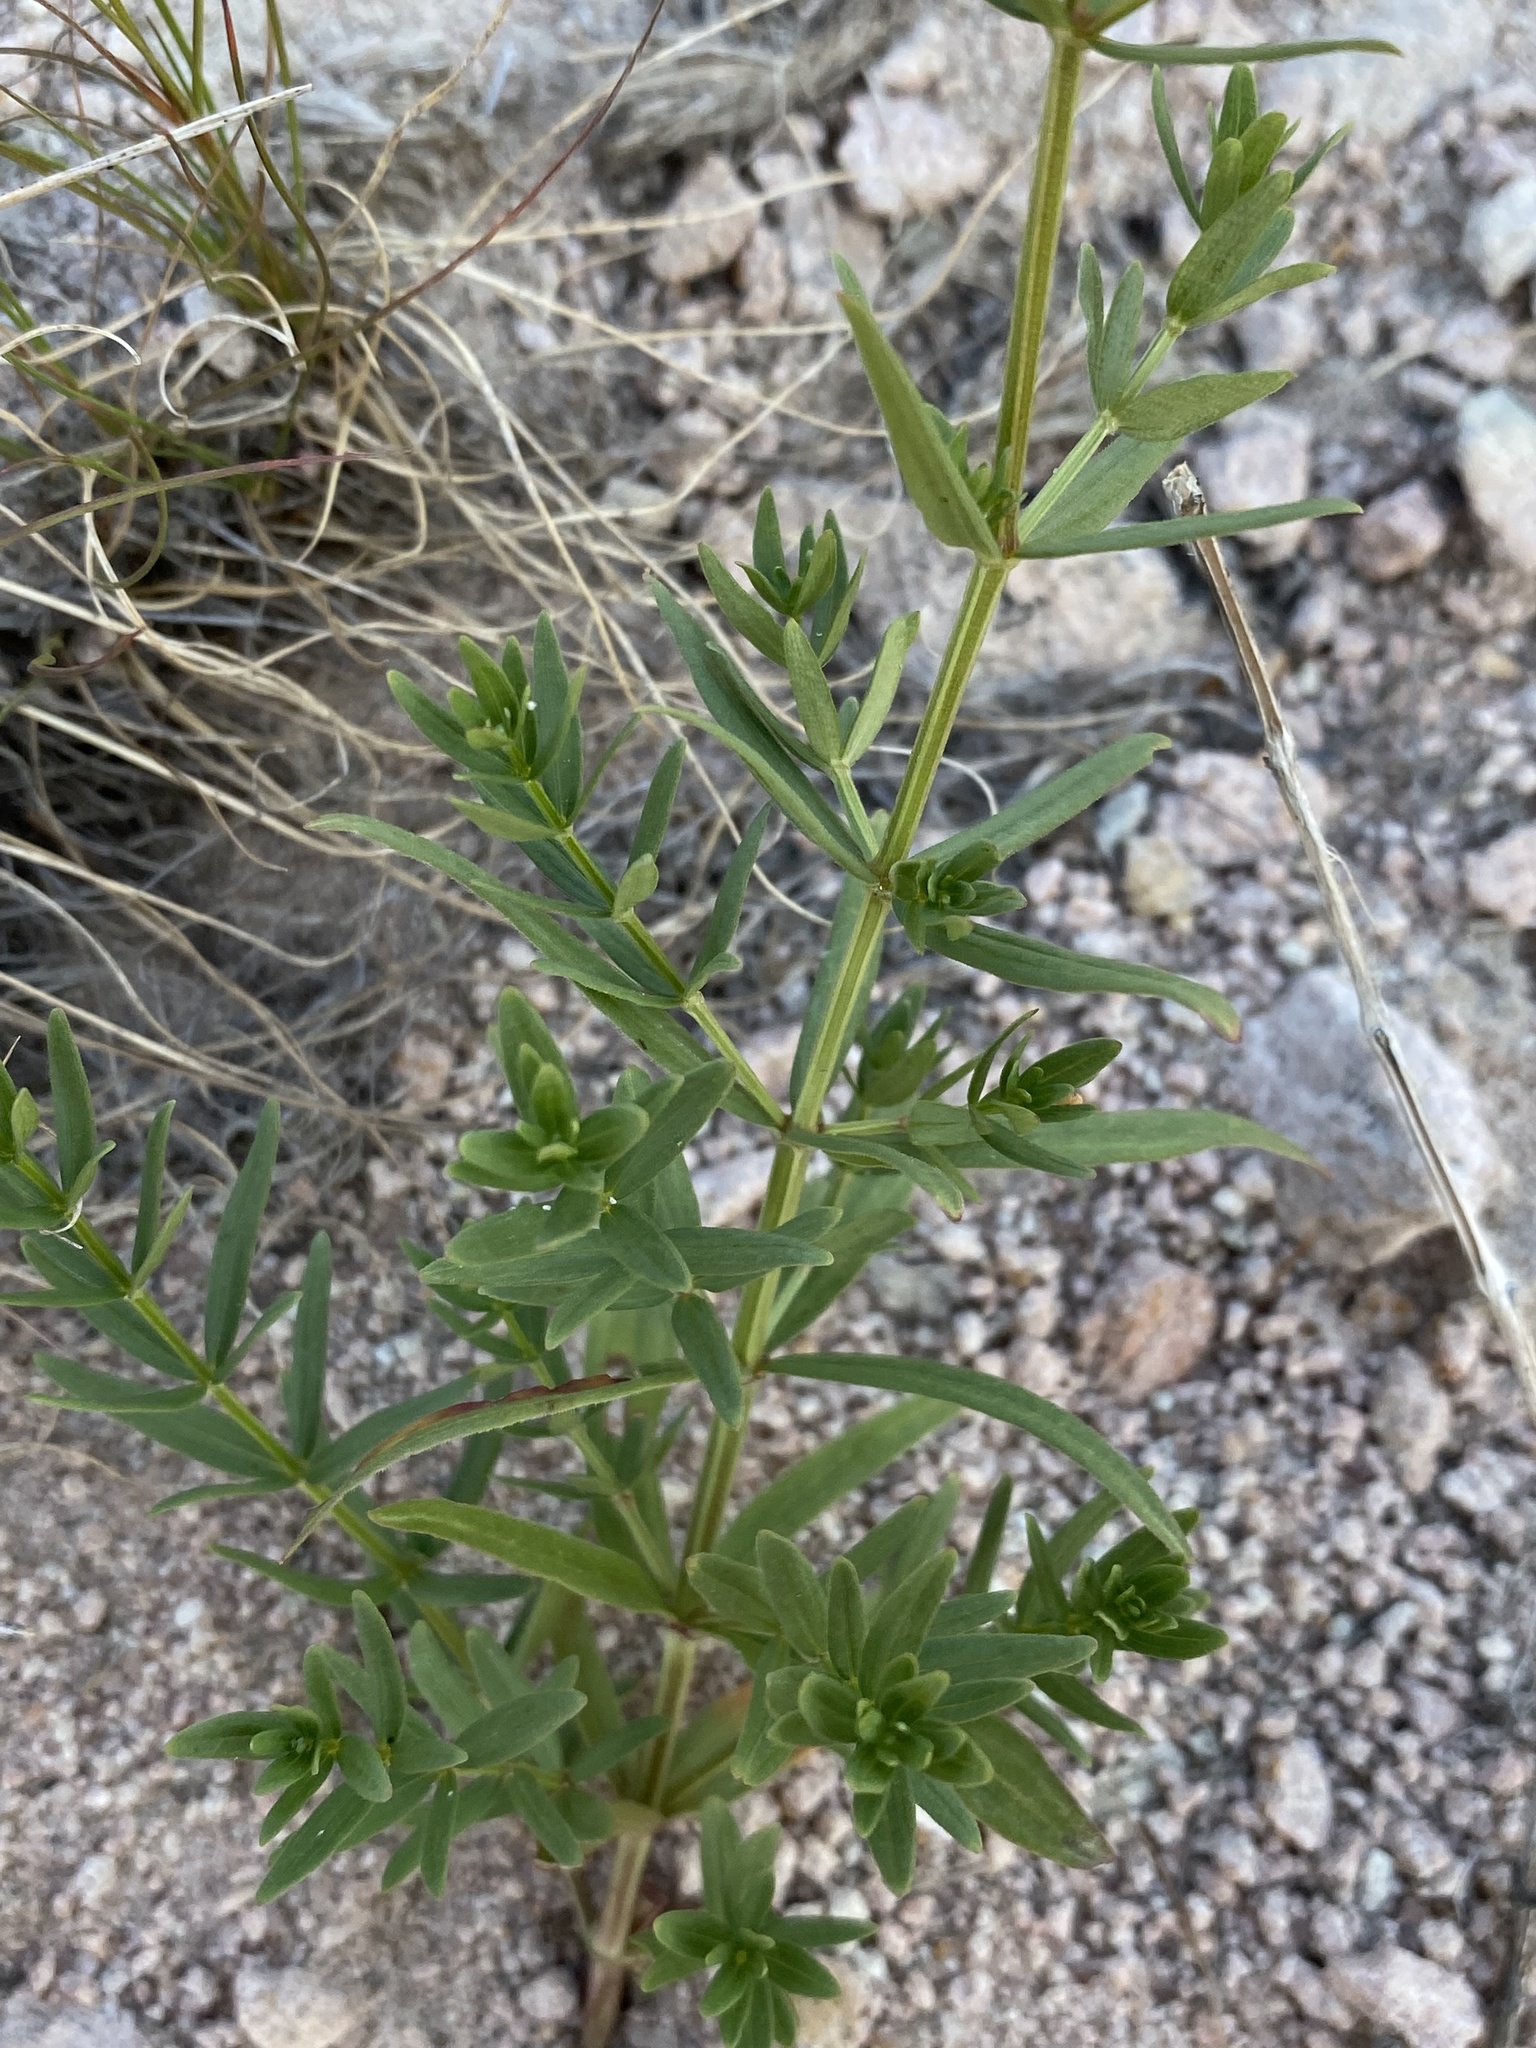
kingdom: Plantae
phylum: Tracheophyta
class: Magnoliopsida
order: Gentianales
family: Rubiaceae
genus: Galium
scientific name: Galium boreale
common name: Northern bedstraw
